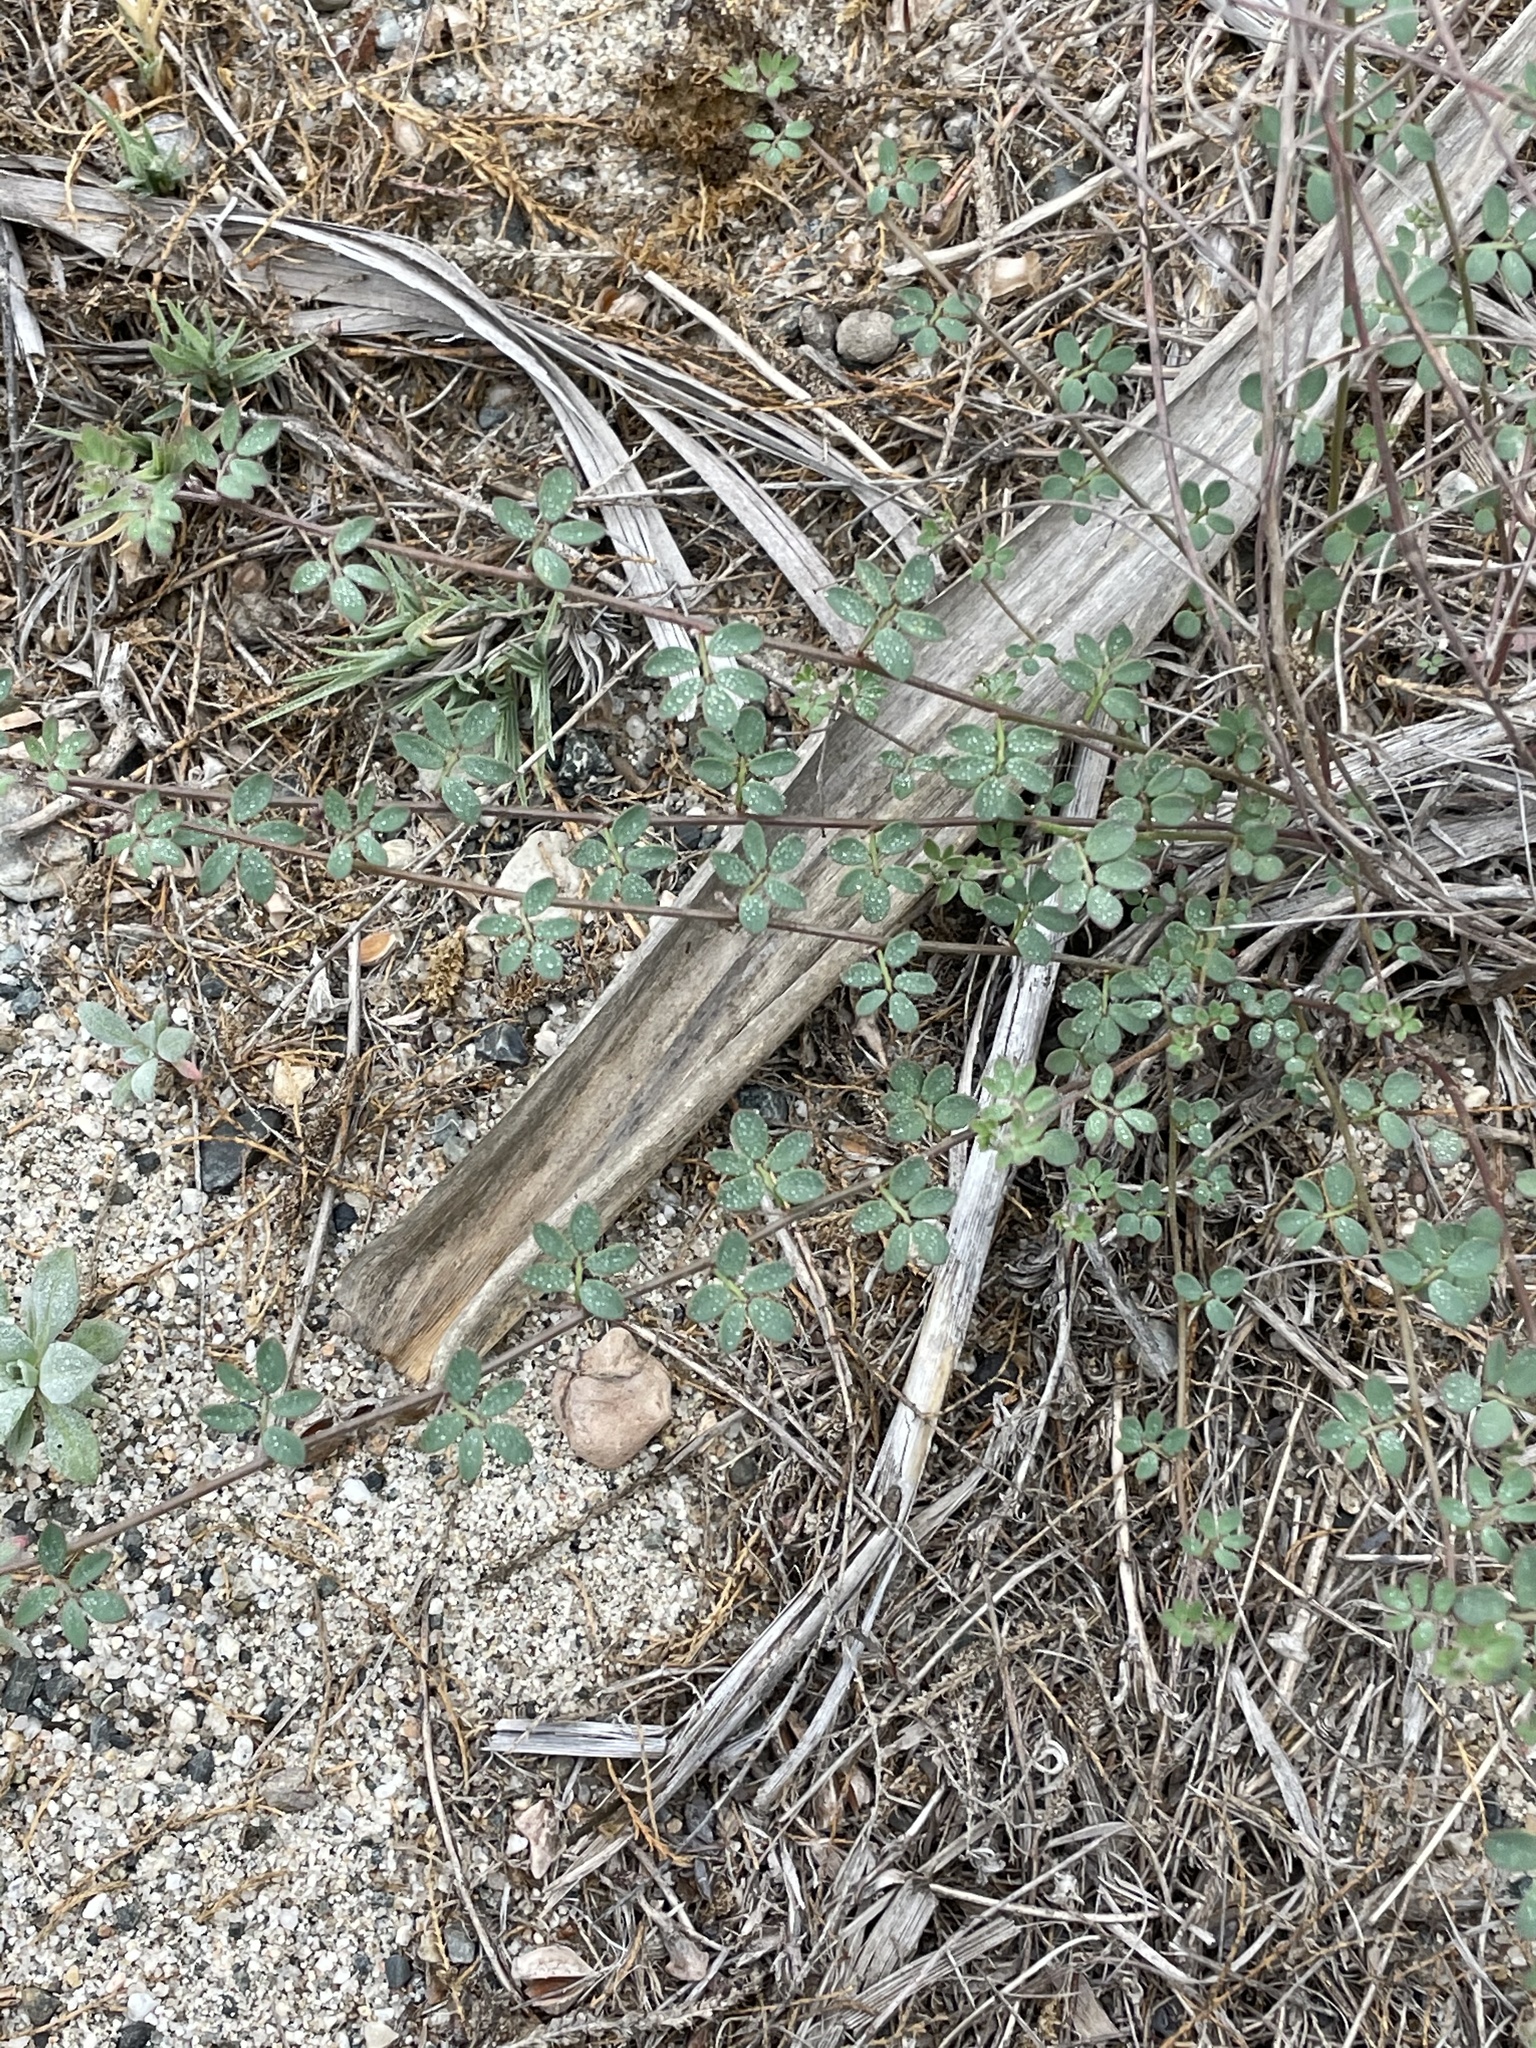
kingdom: Plantae
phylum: Tracheophyta
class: Magnoliopsida
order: Fabales
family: Fabaceae
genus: Acmispon
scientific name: Acmispon prostratus
